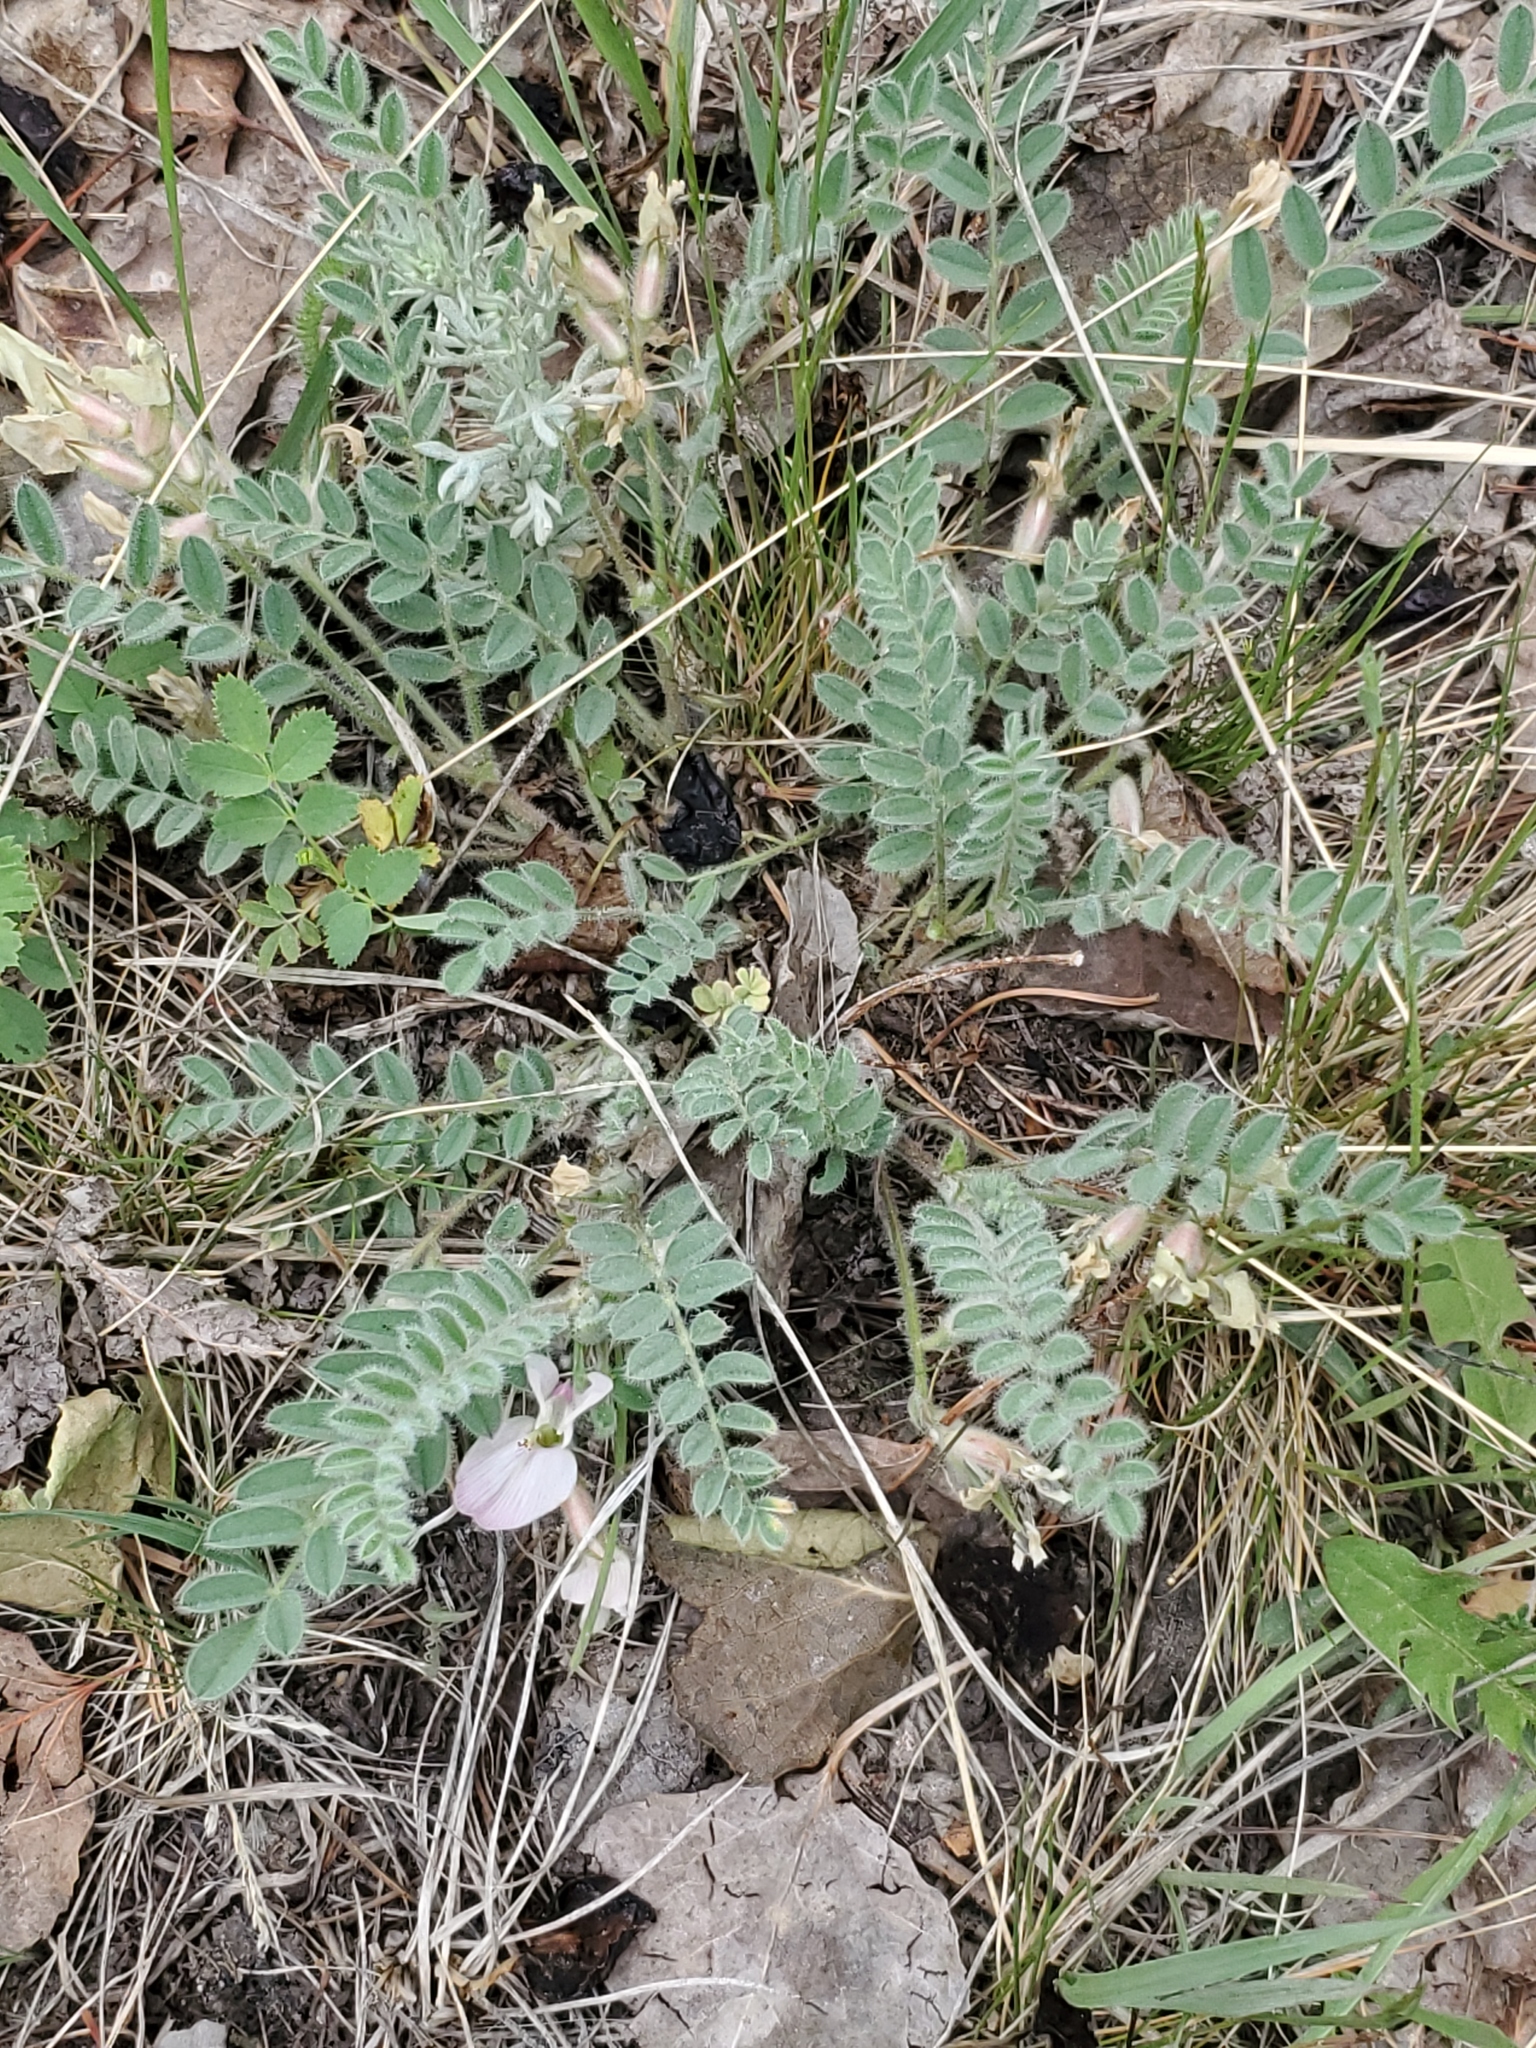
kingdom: Plantae
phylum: Tracheophyta
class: Magnoliopsida
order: Fabales
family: Fabaceae
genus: Astragalus
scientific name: Astragalus parryi
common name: Parry milk-vetch
